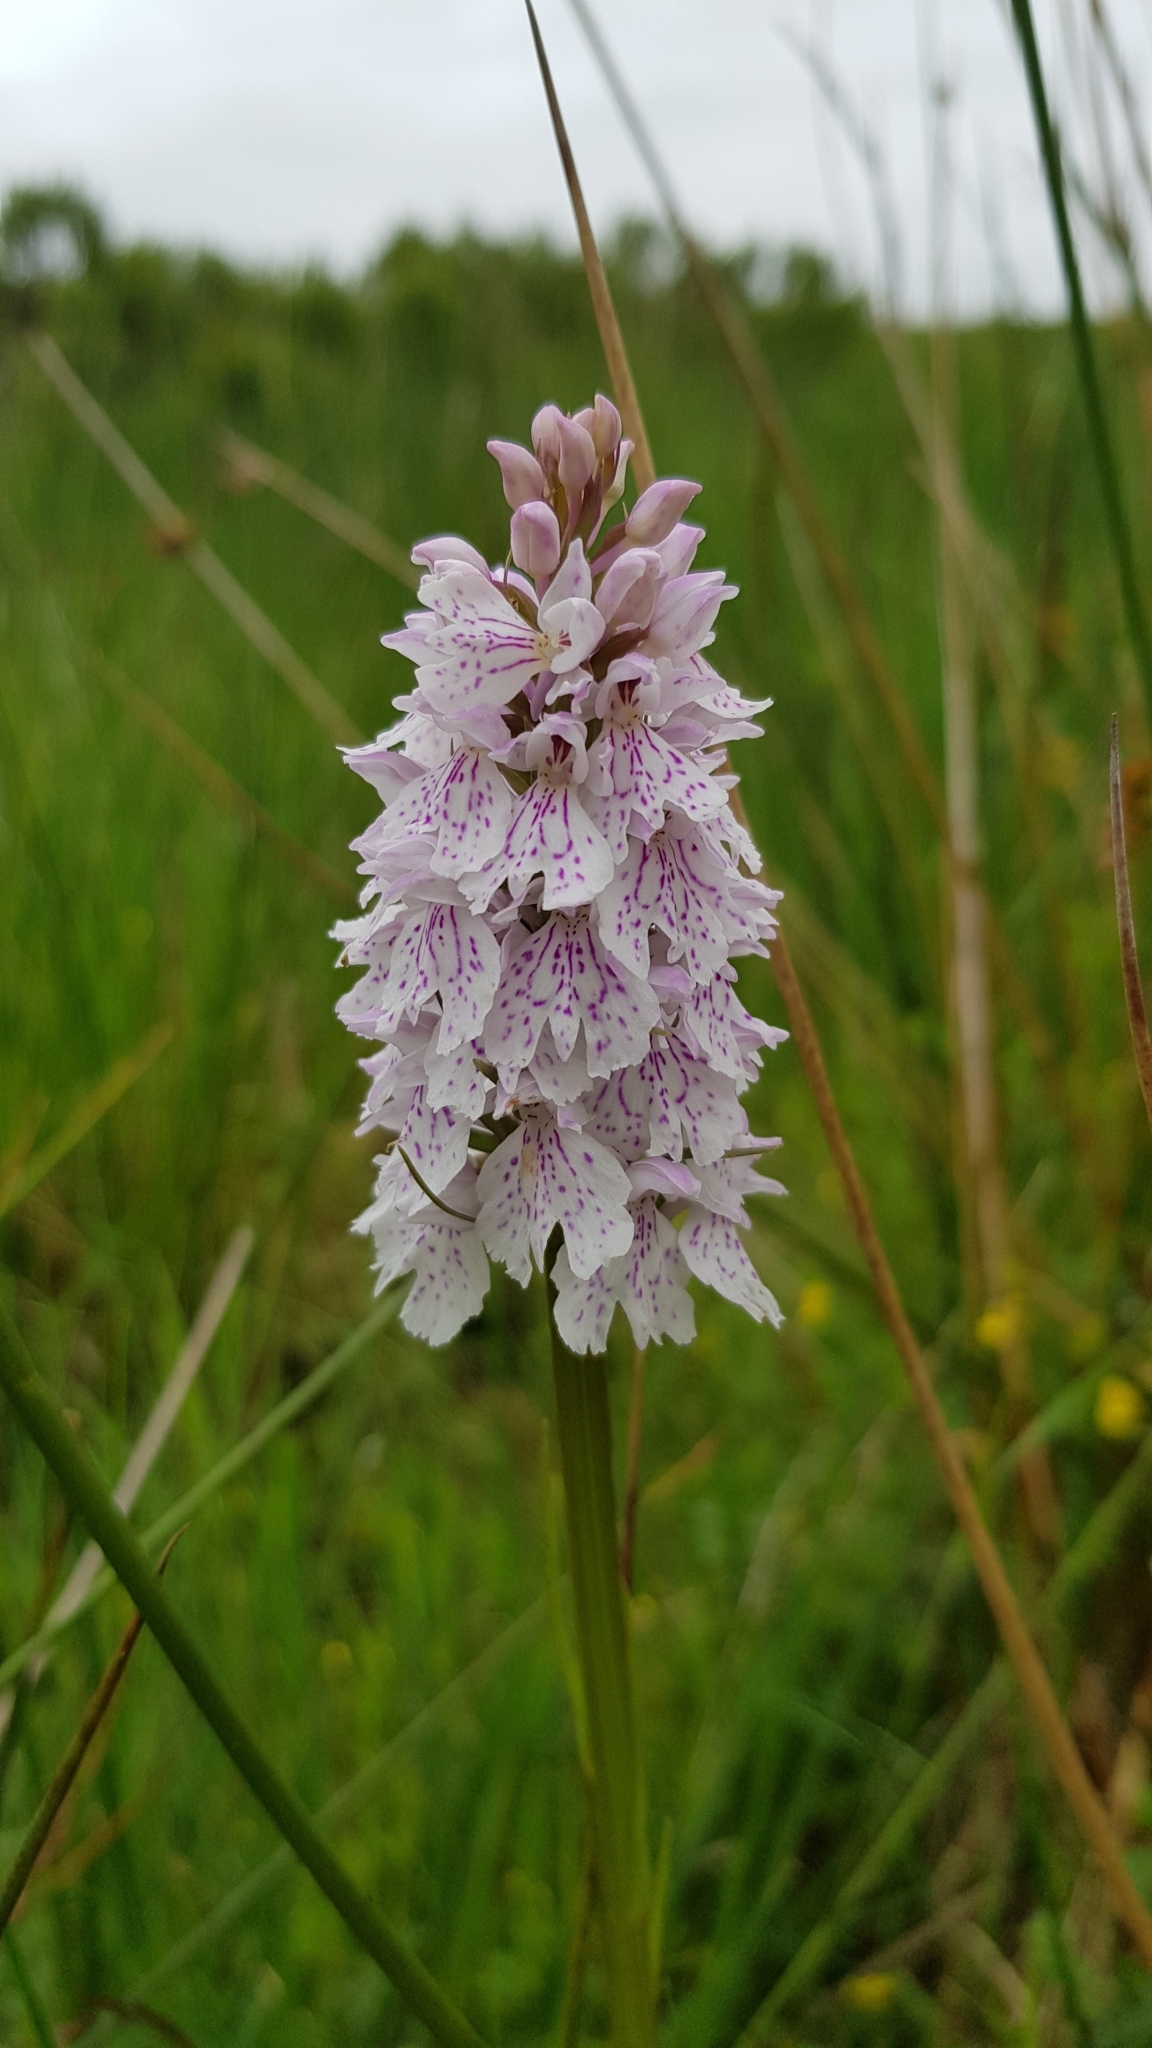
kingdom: Plantae
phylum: Tracheophyta
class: Liliopsida
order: Asparagales
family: Orchidaceae
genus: Dactylorhiza
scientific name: Dactylorhiza maculata
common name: Heath spotted-orchid
